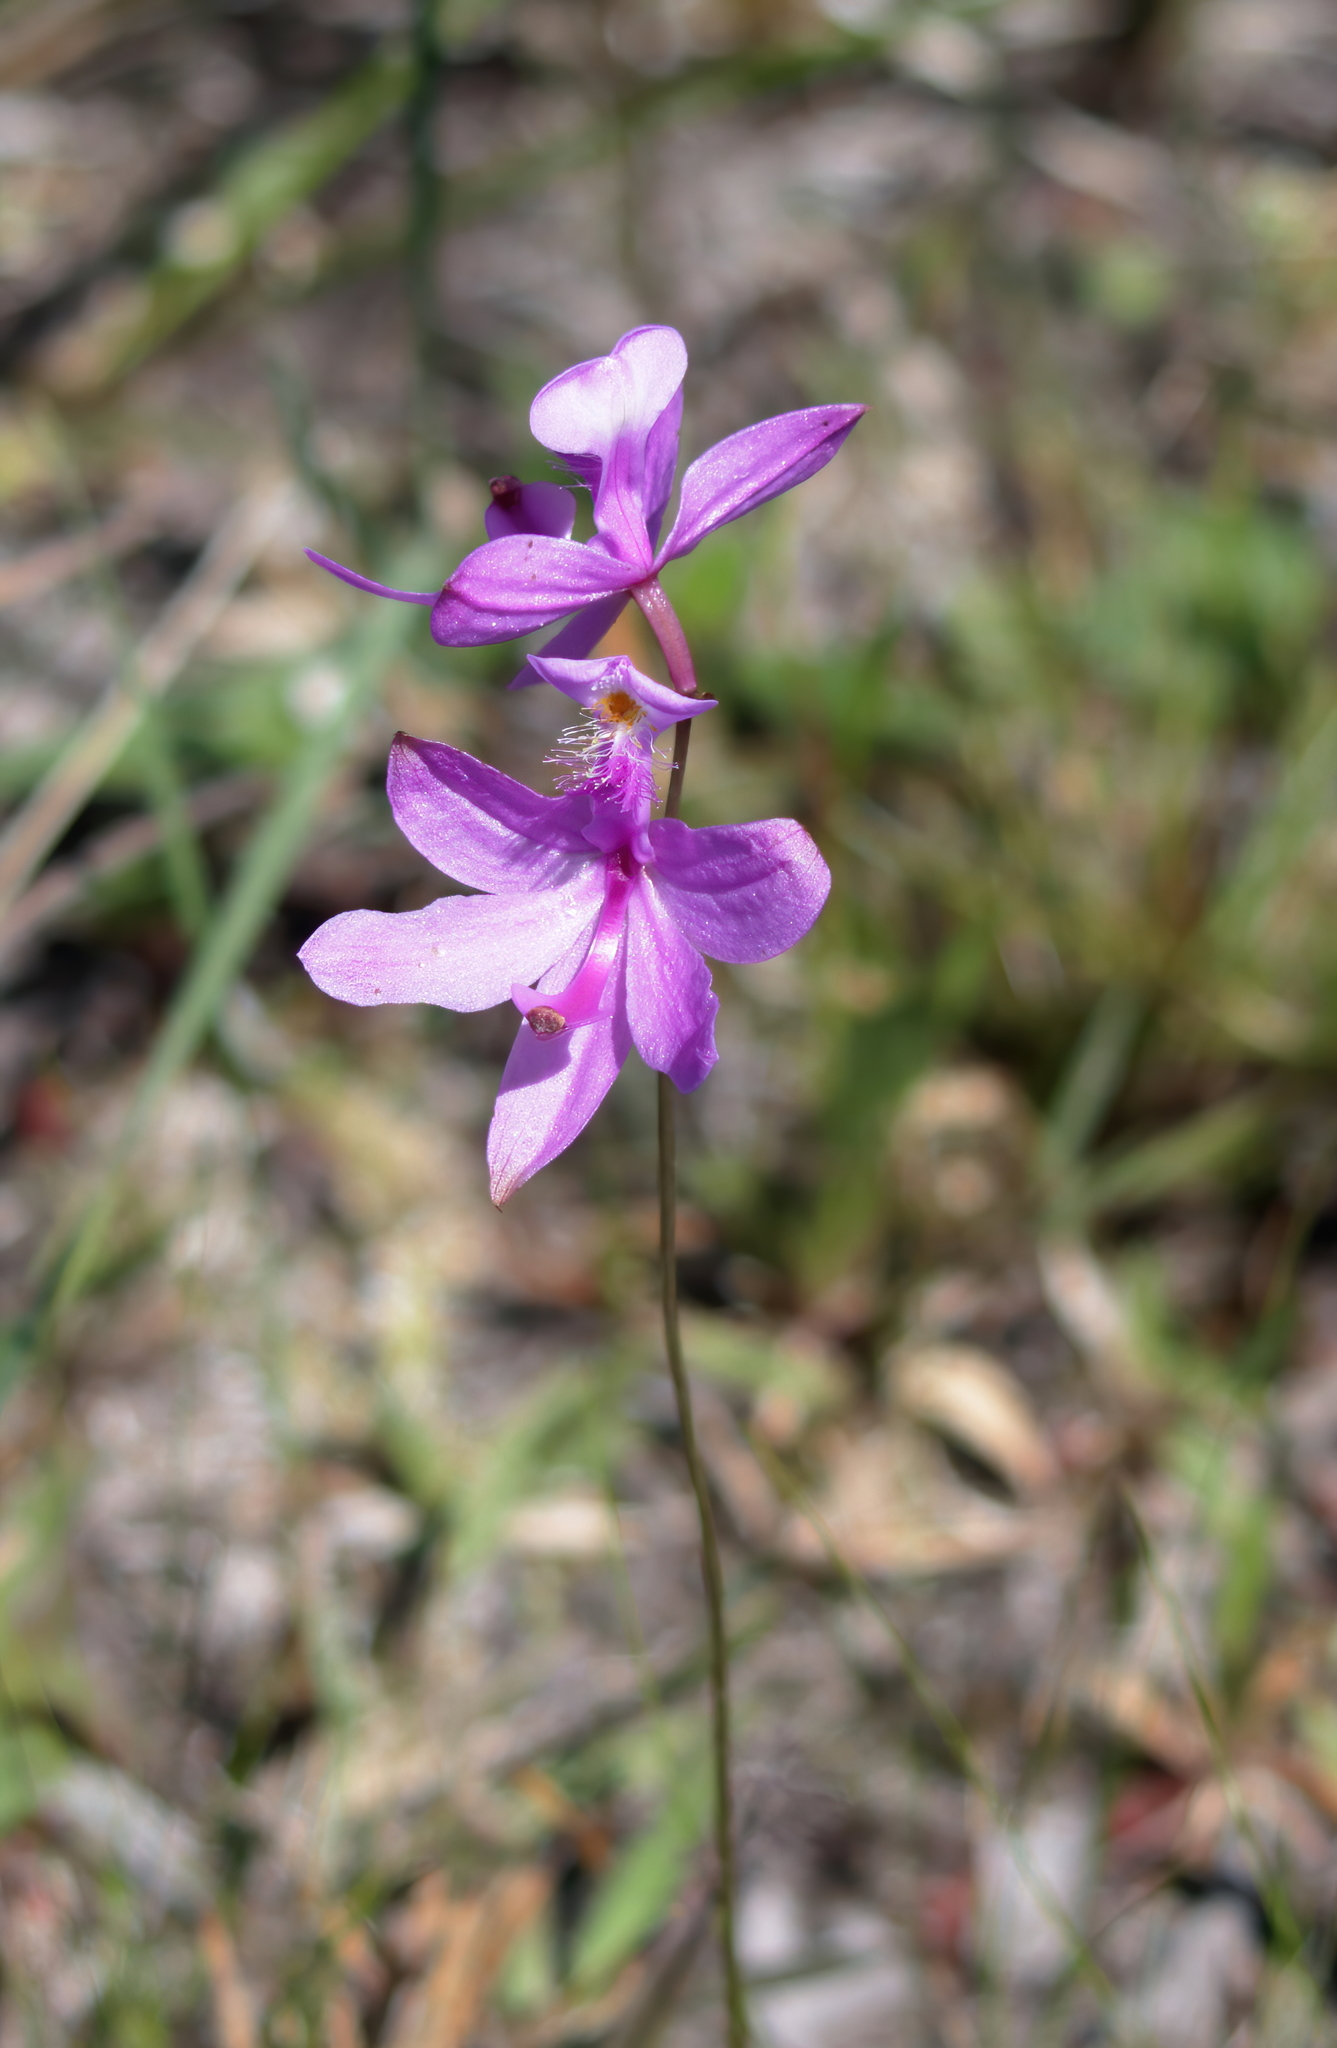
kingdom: Plantae
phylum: Tracheophyta
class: Liliopsida
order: Asparagales
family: Orchidaceae
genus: Calopogon
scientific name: Calopogon tuberosus
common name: Grass-pink
